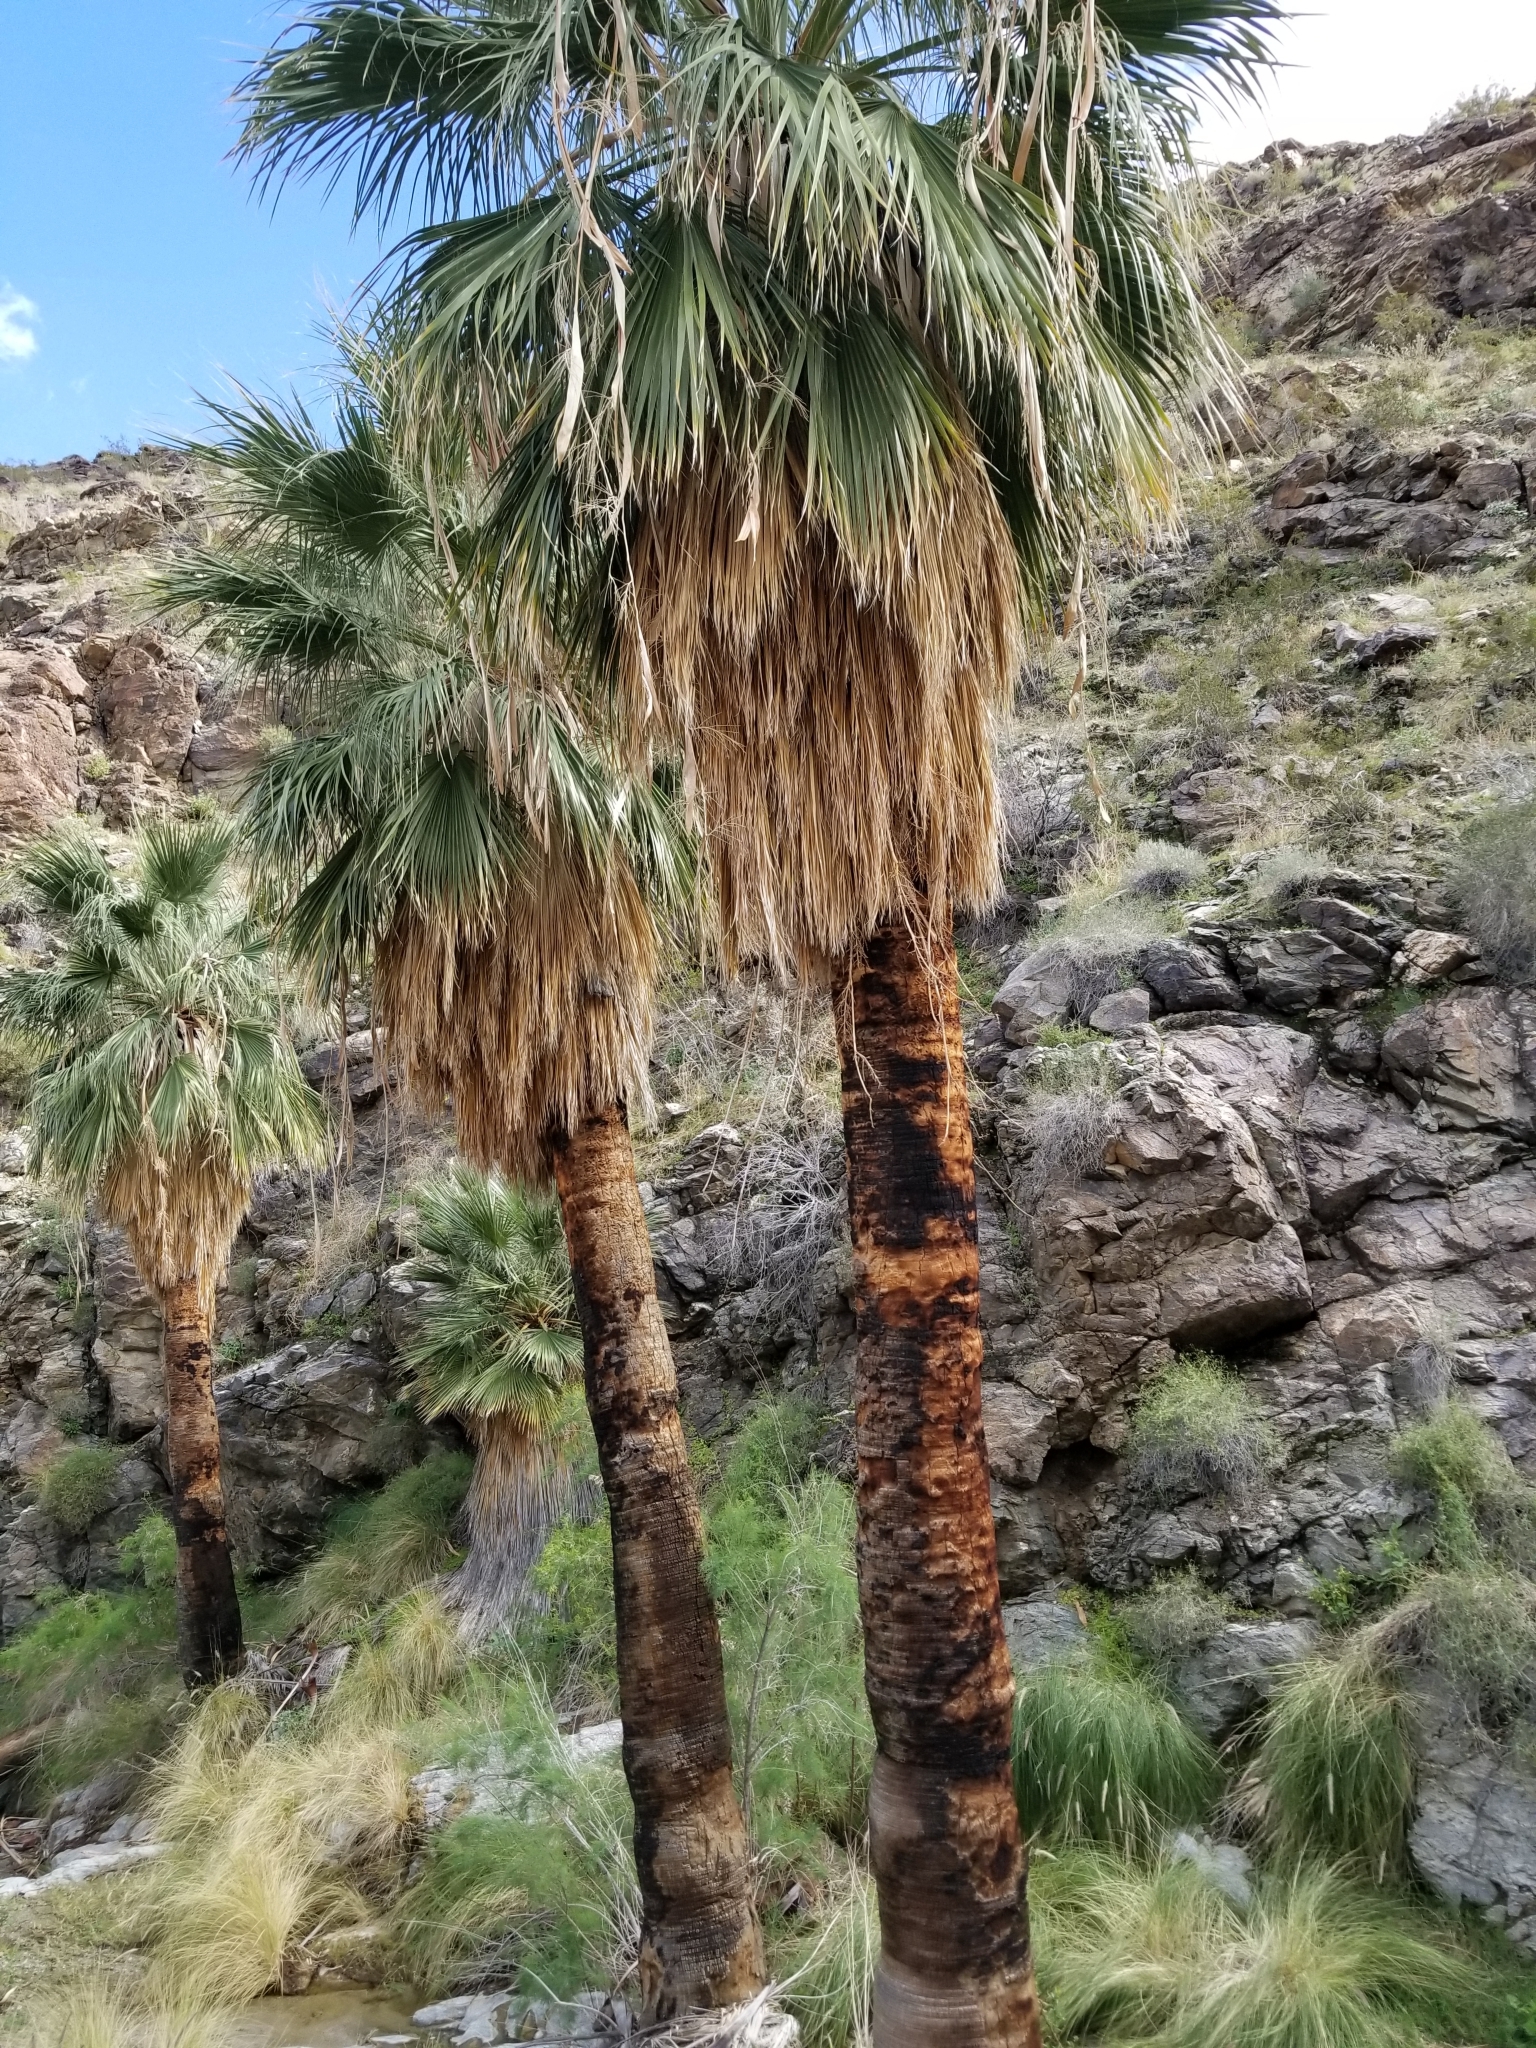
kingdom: Plantae
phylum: Tracheophyta
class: Liliopsida
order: Arecales
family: Arecaceae
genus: Washingtonia
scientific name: Washingtonia filifera
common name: California fan palm
